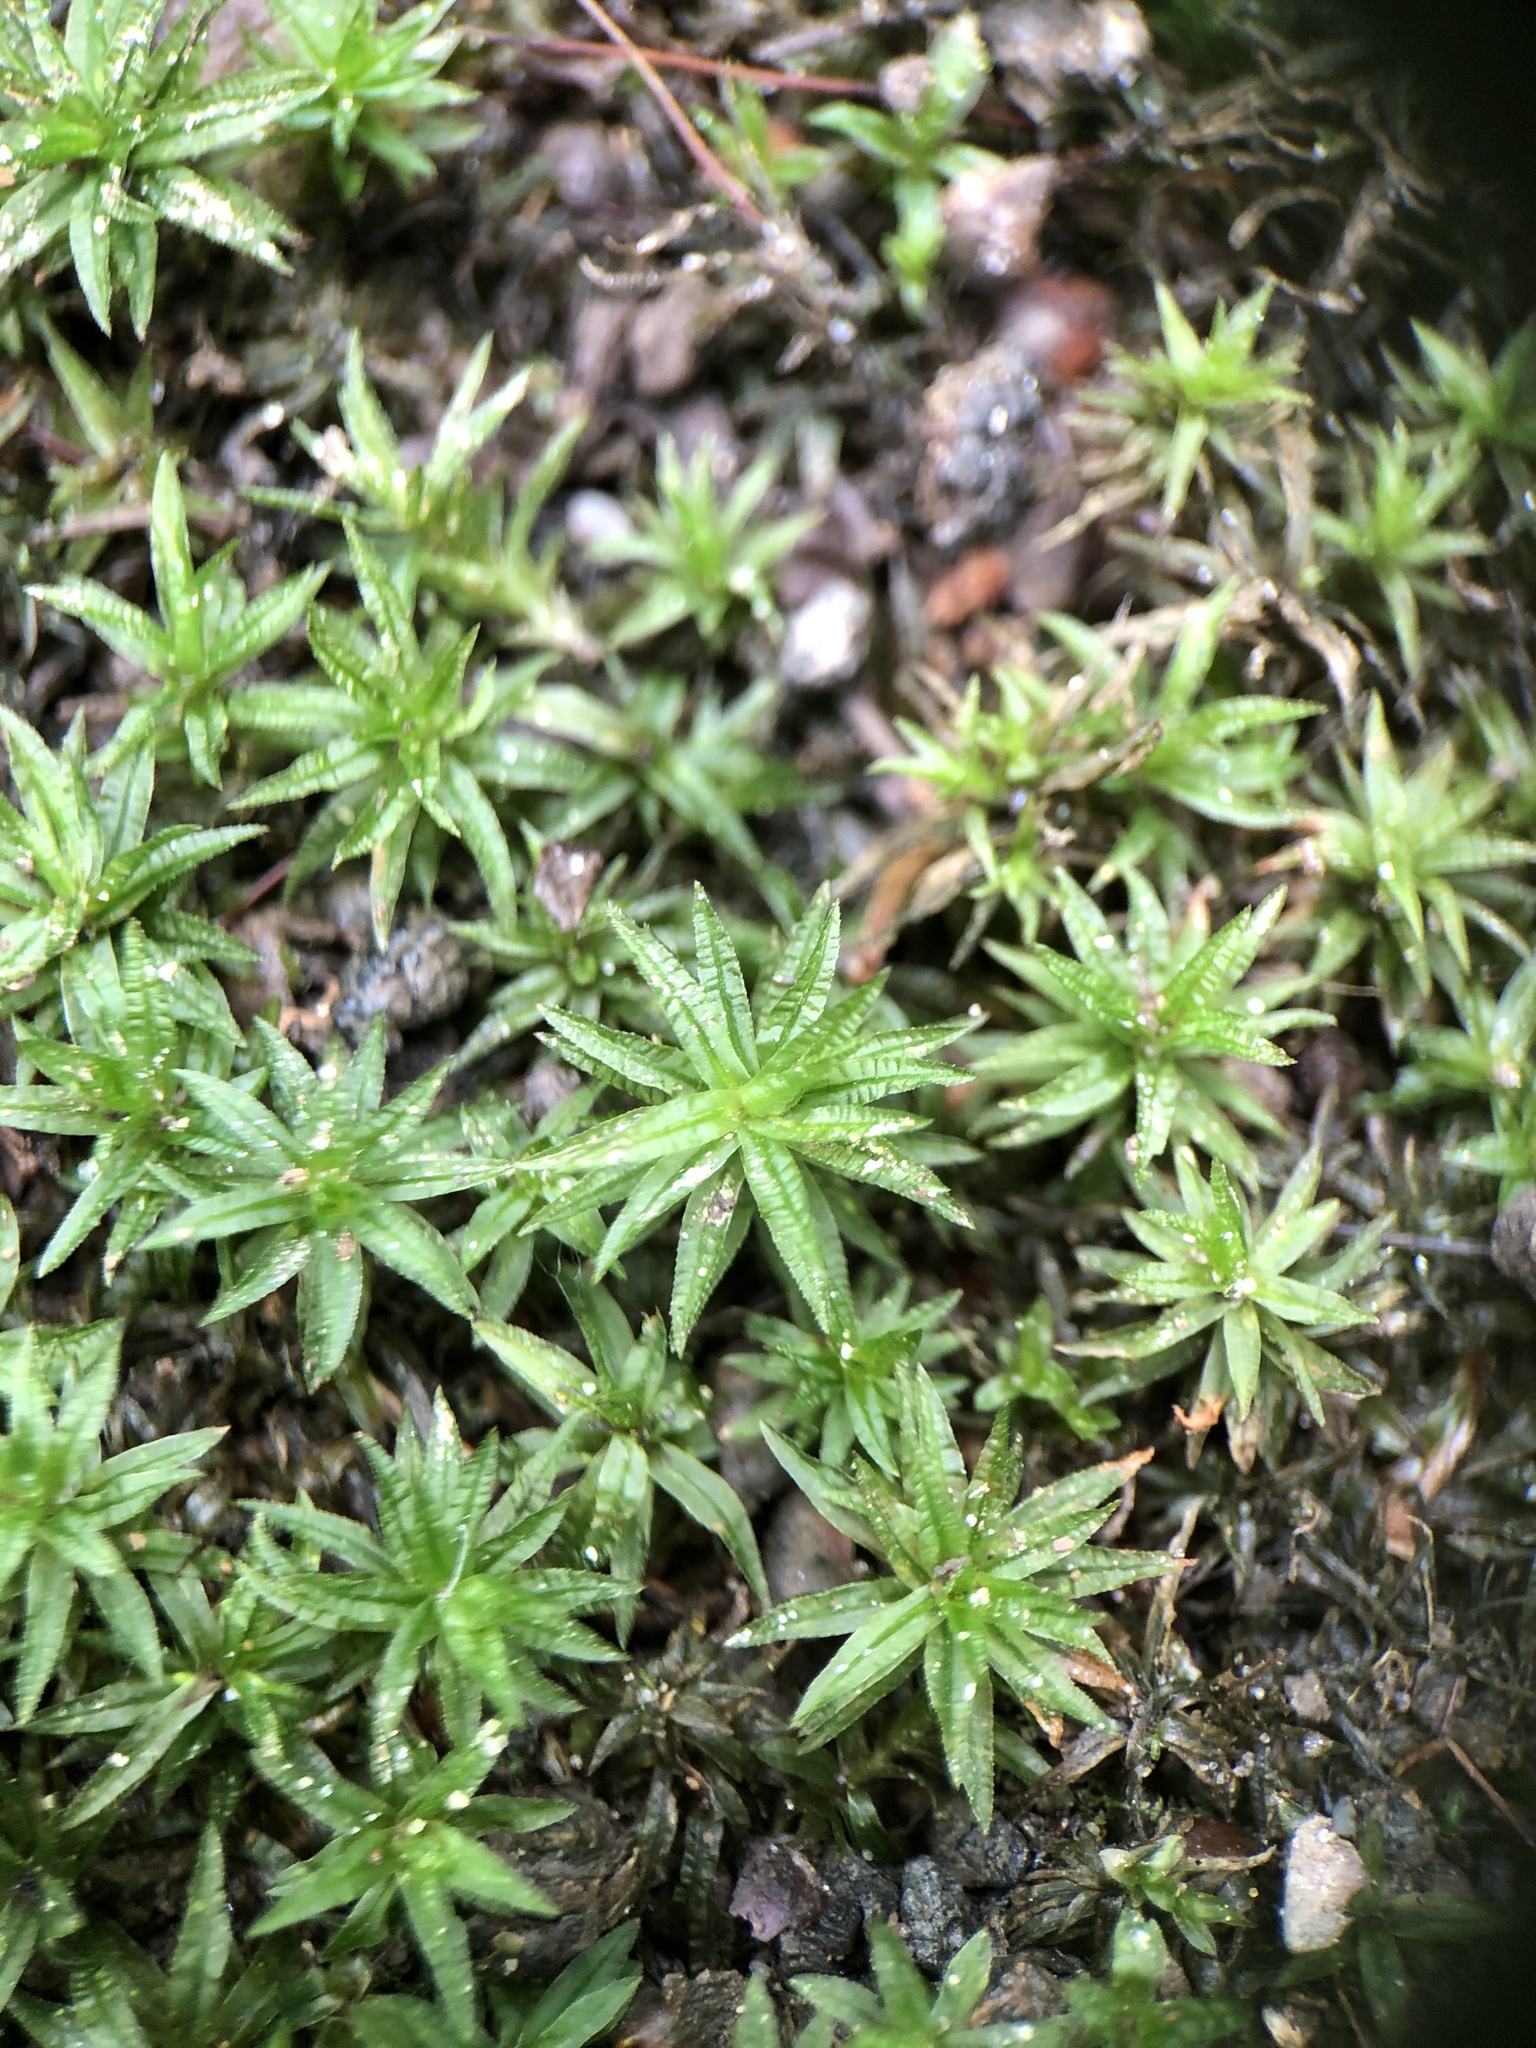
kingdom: Plantae
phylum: Bryophyta
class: Polytrichopsida
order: Polytrichales
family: Polytrichaceae
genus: Atrichum
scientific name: Atrichum undulatum
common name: Common smoothcap
